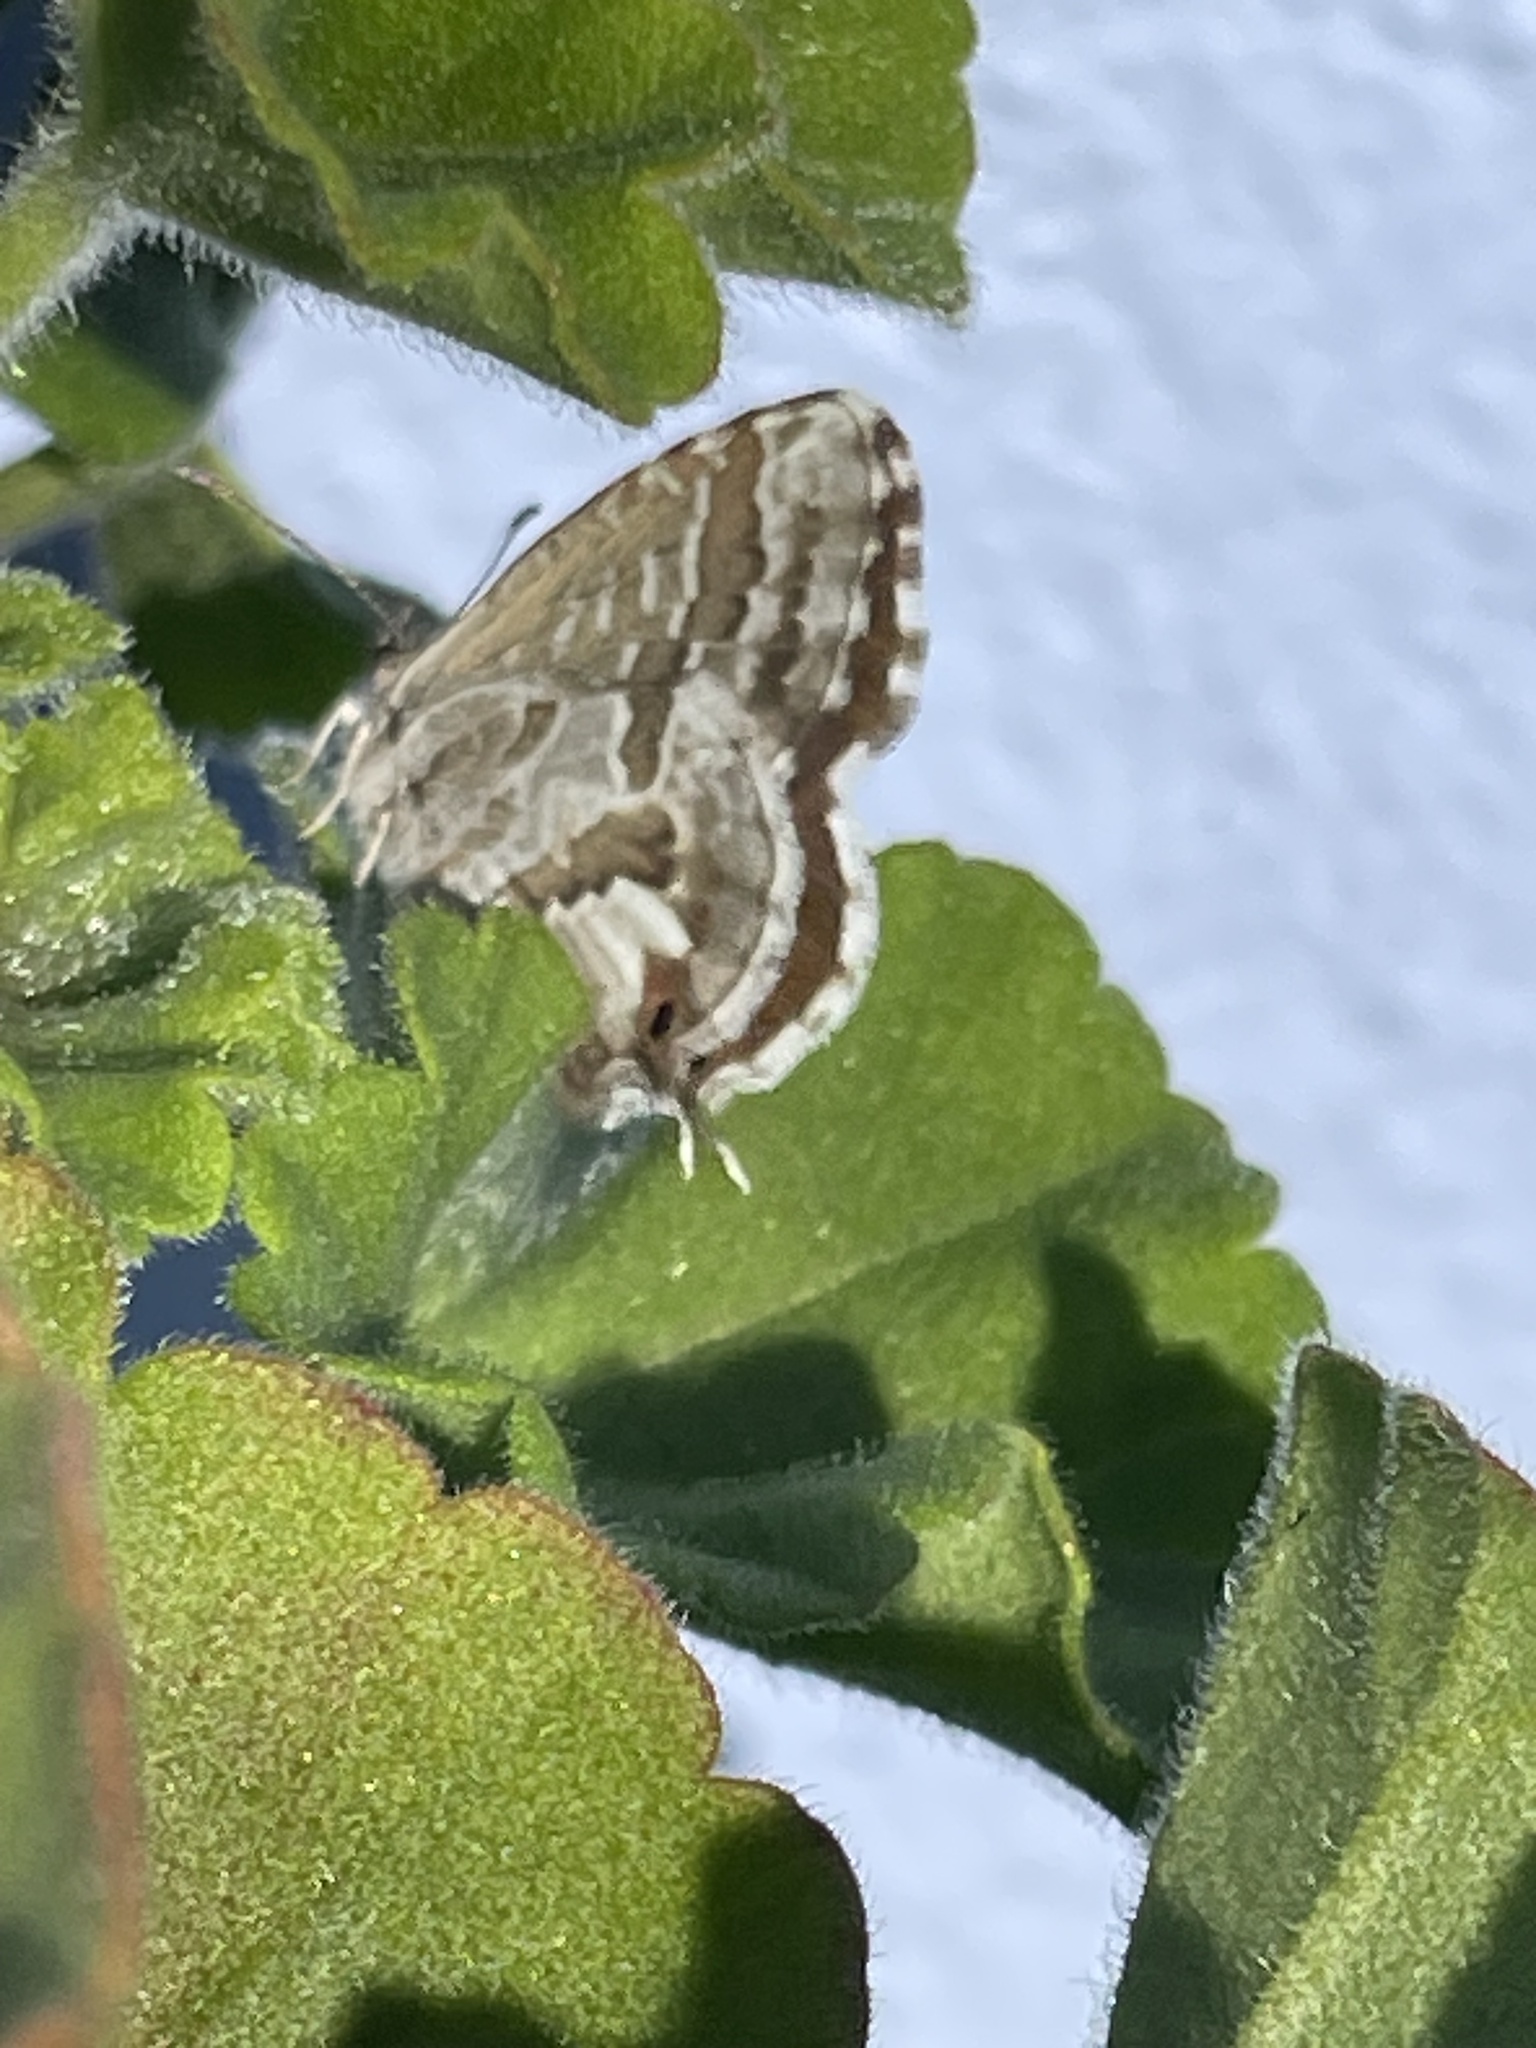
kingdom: Animalia
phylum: Arthropoda
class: Insecta
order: Lepidoptera
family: Lycaenidae
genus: Cacyreus
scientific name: Cacyreus marshalli
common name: Geranium bronze
